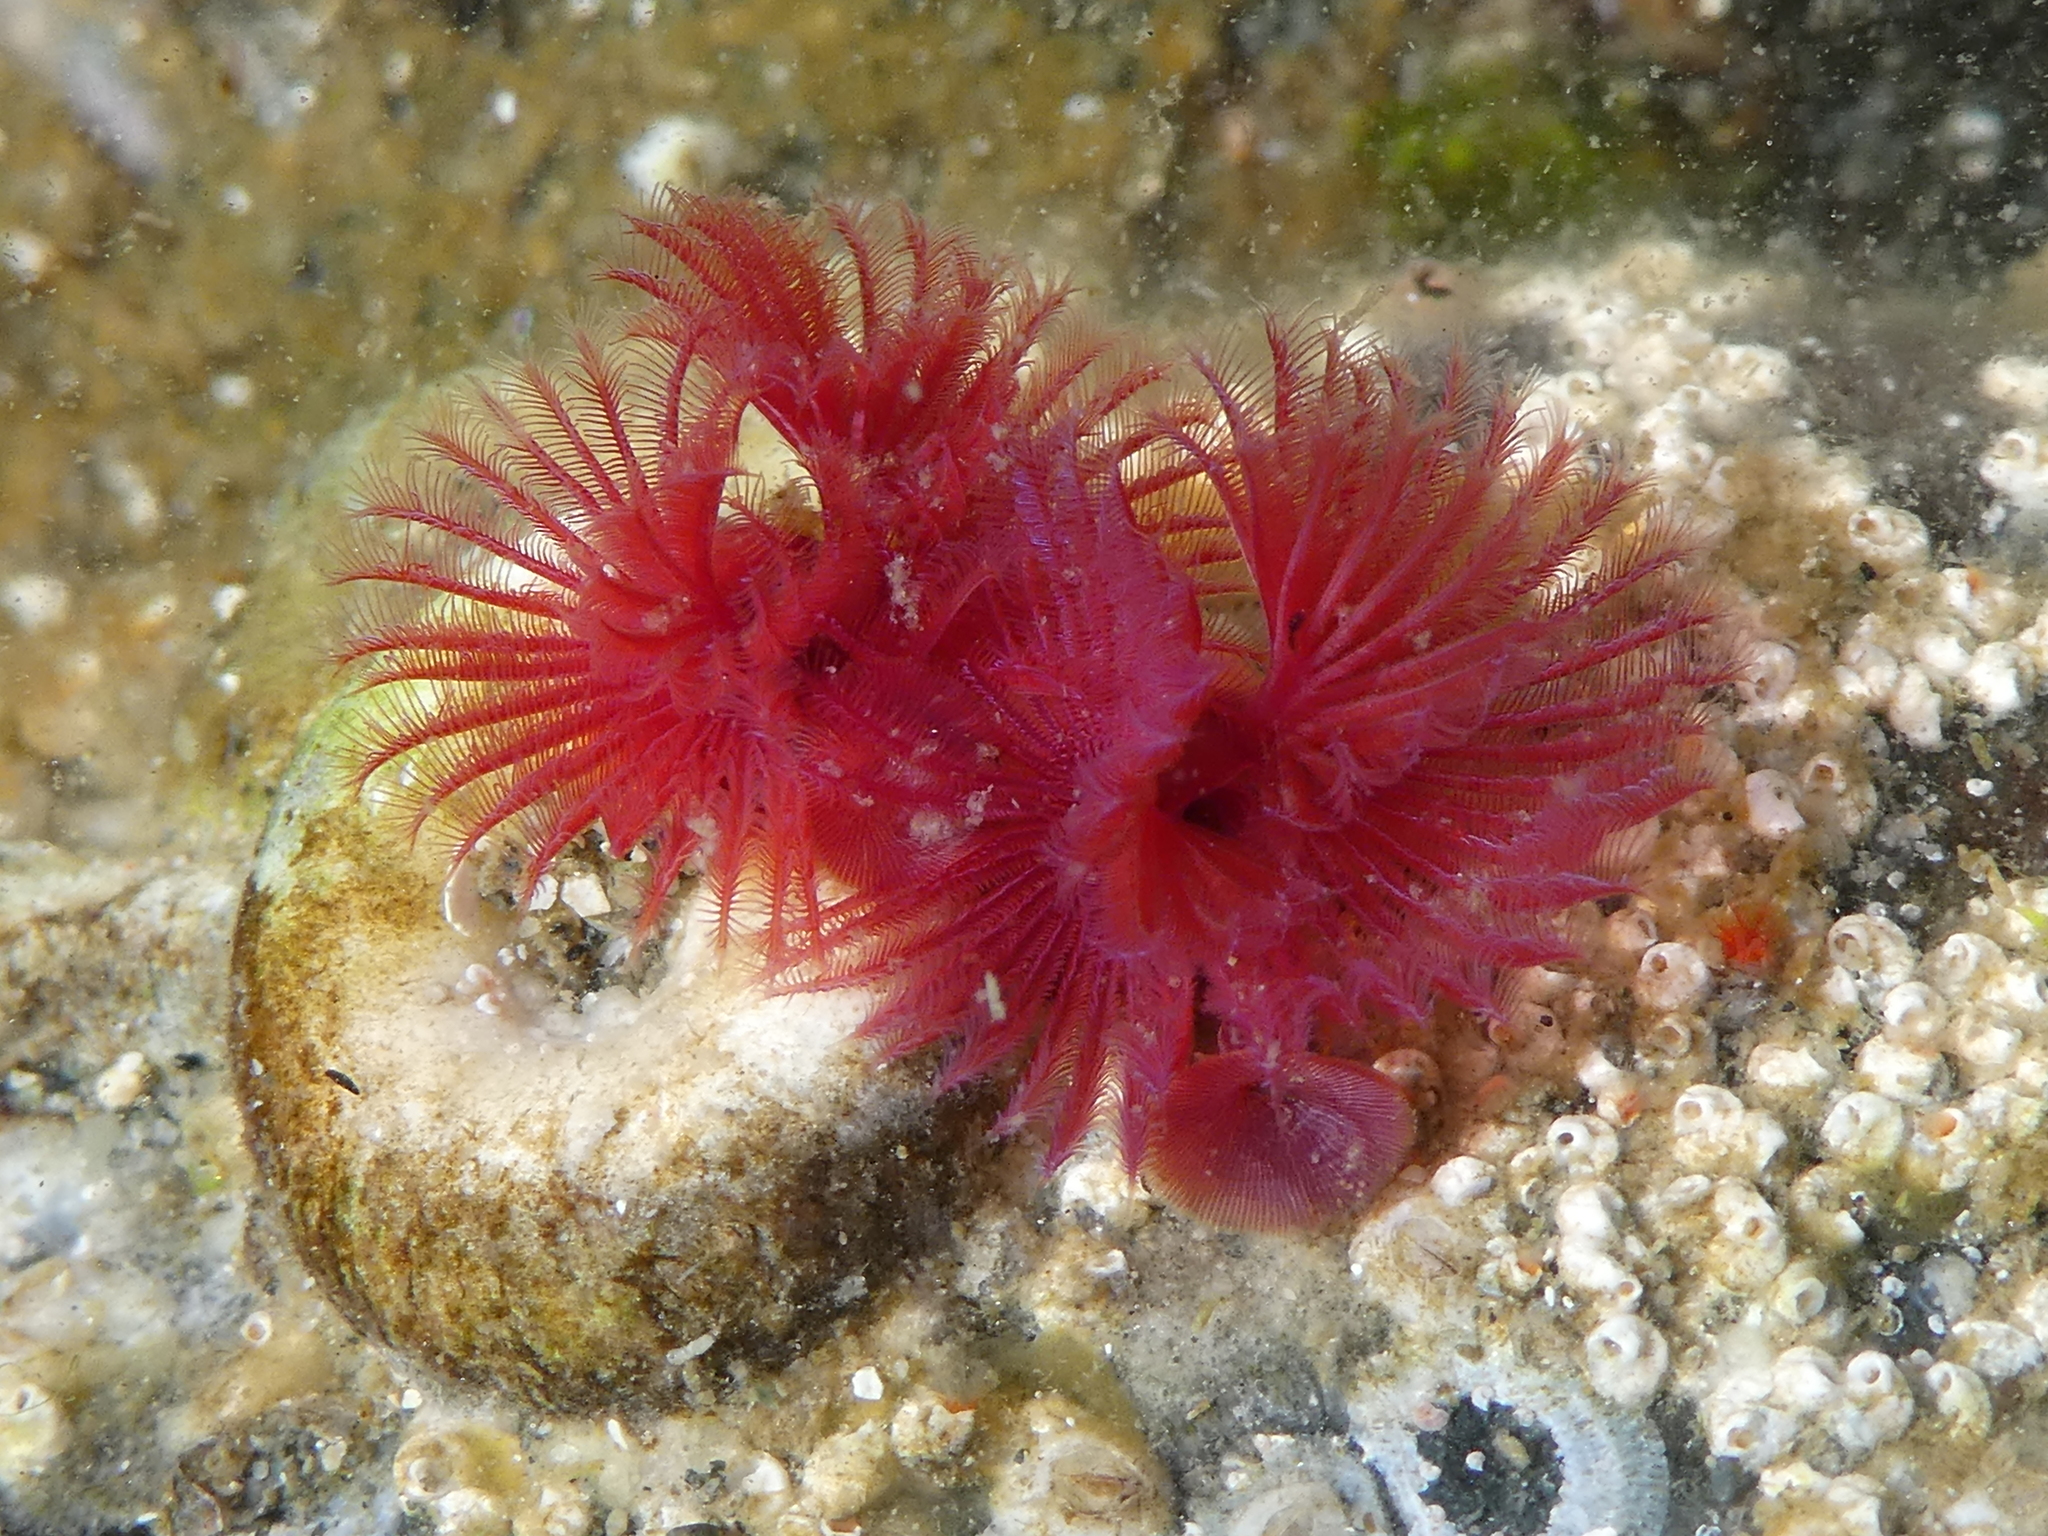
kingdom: Animalia
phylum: Annelida
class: Polychaeta
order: Sabellida
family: Serpulidae
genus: Serpula
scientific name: Serpula columbiana
